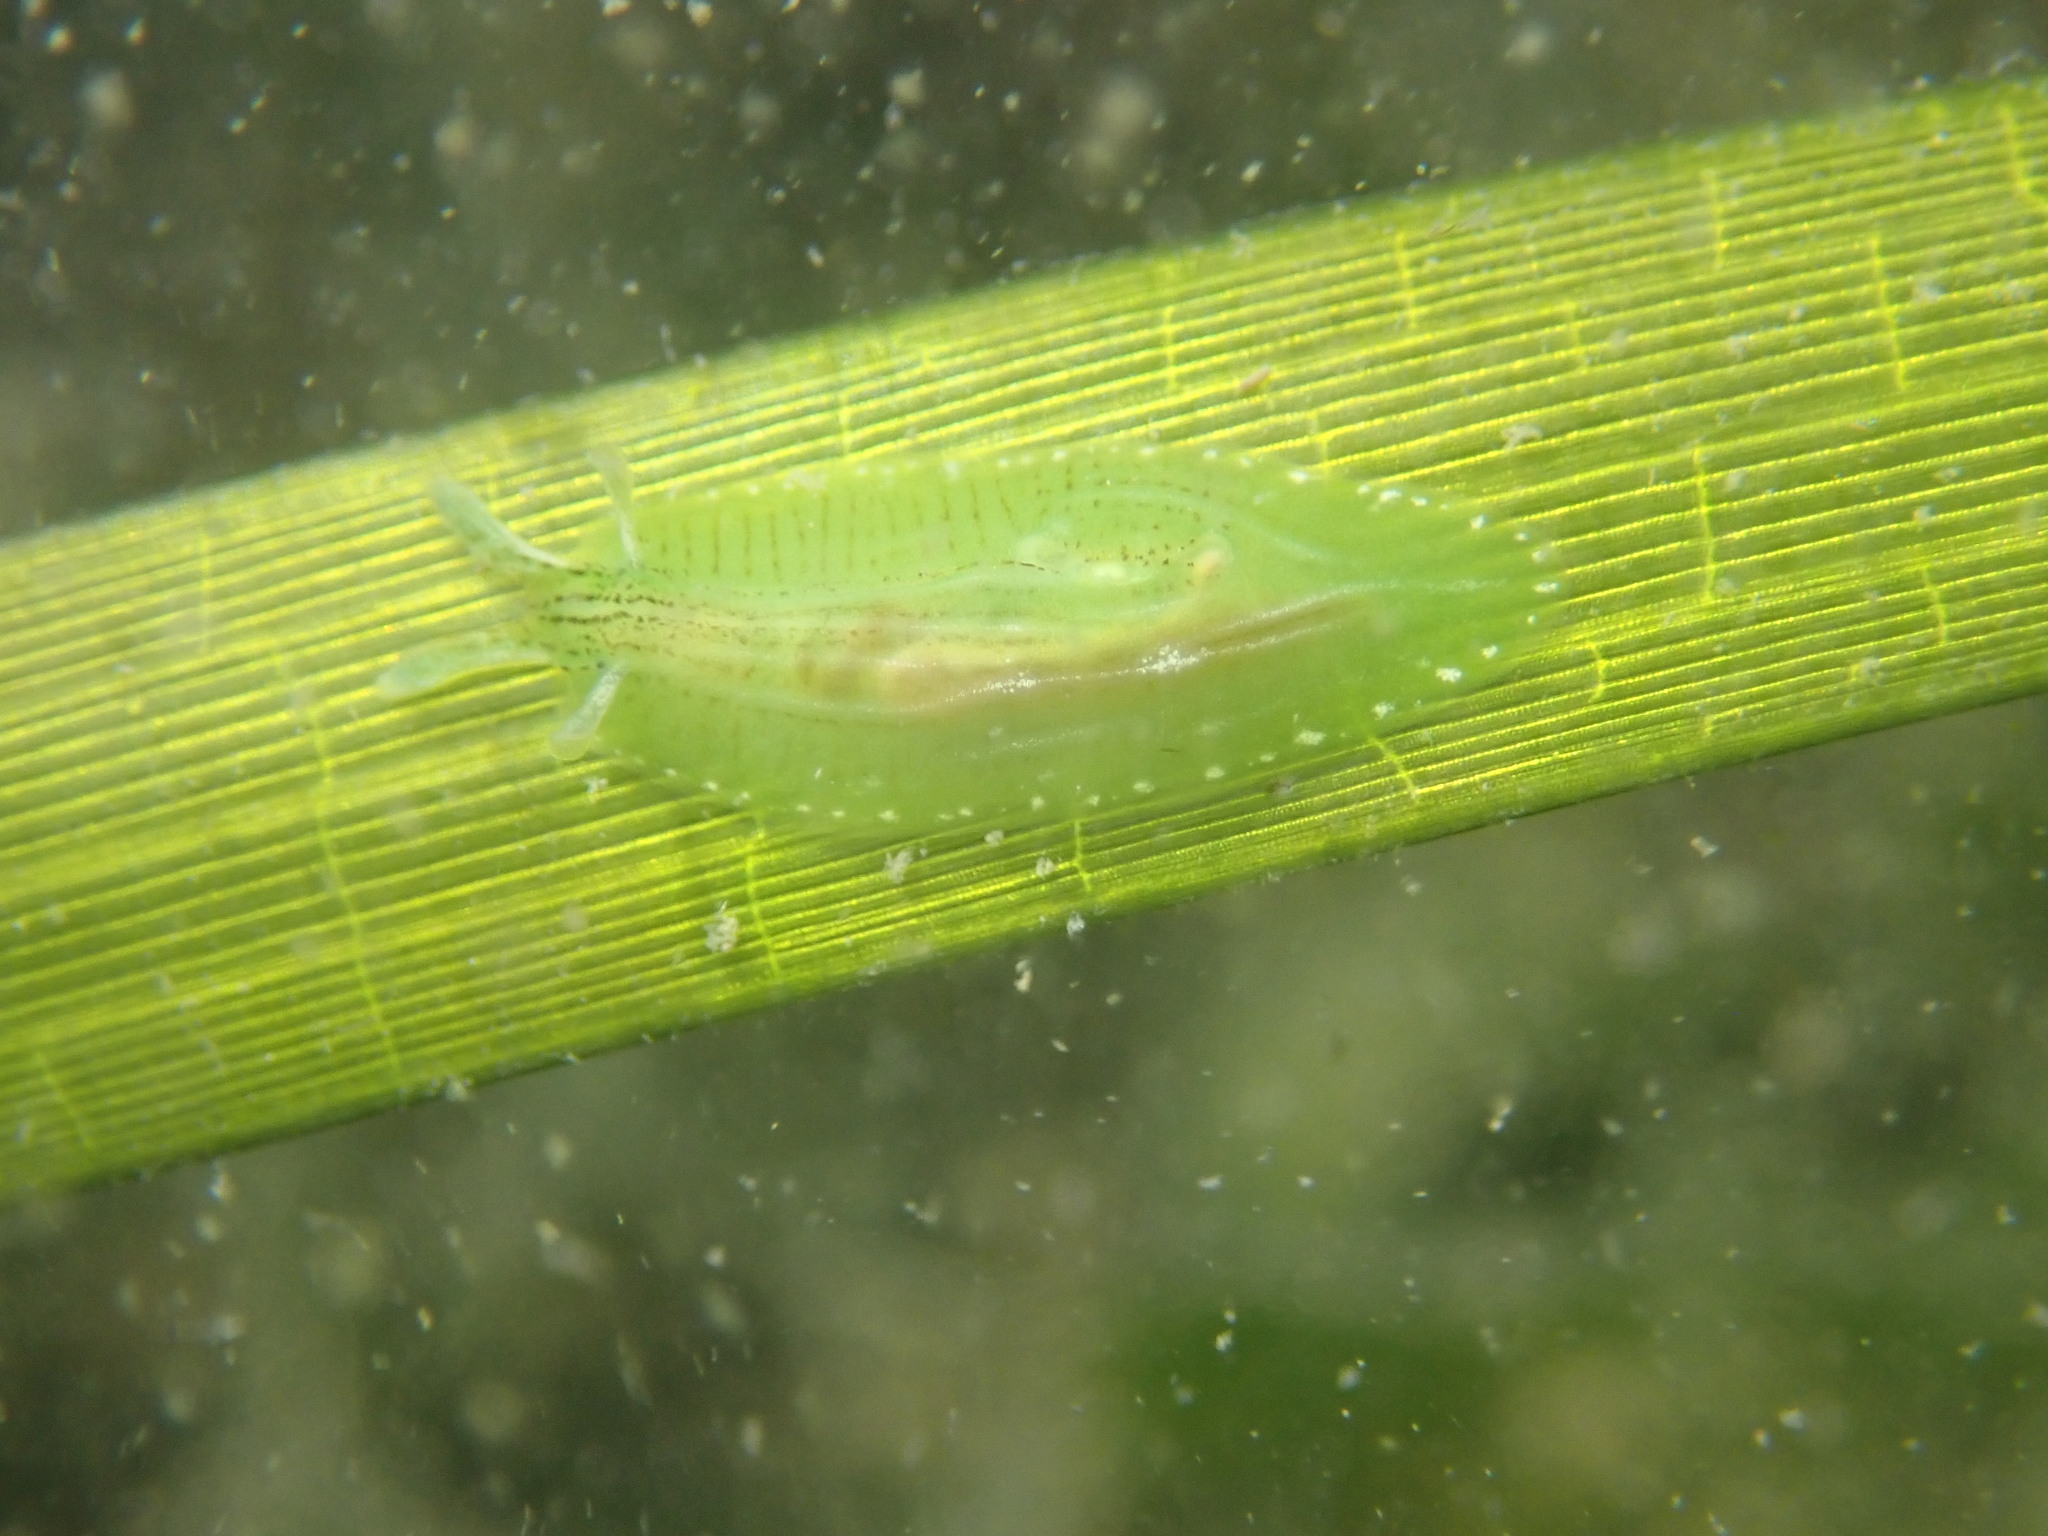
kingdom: Animalia
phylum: Mollusca
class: Gastropoda
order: Aplysiida
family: Aplysiidae
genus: Phyllaplysia
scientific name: Phyllaplysia taylori
